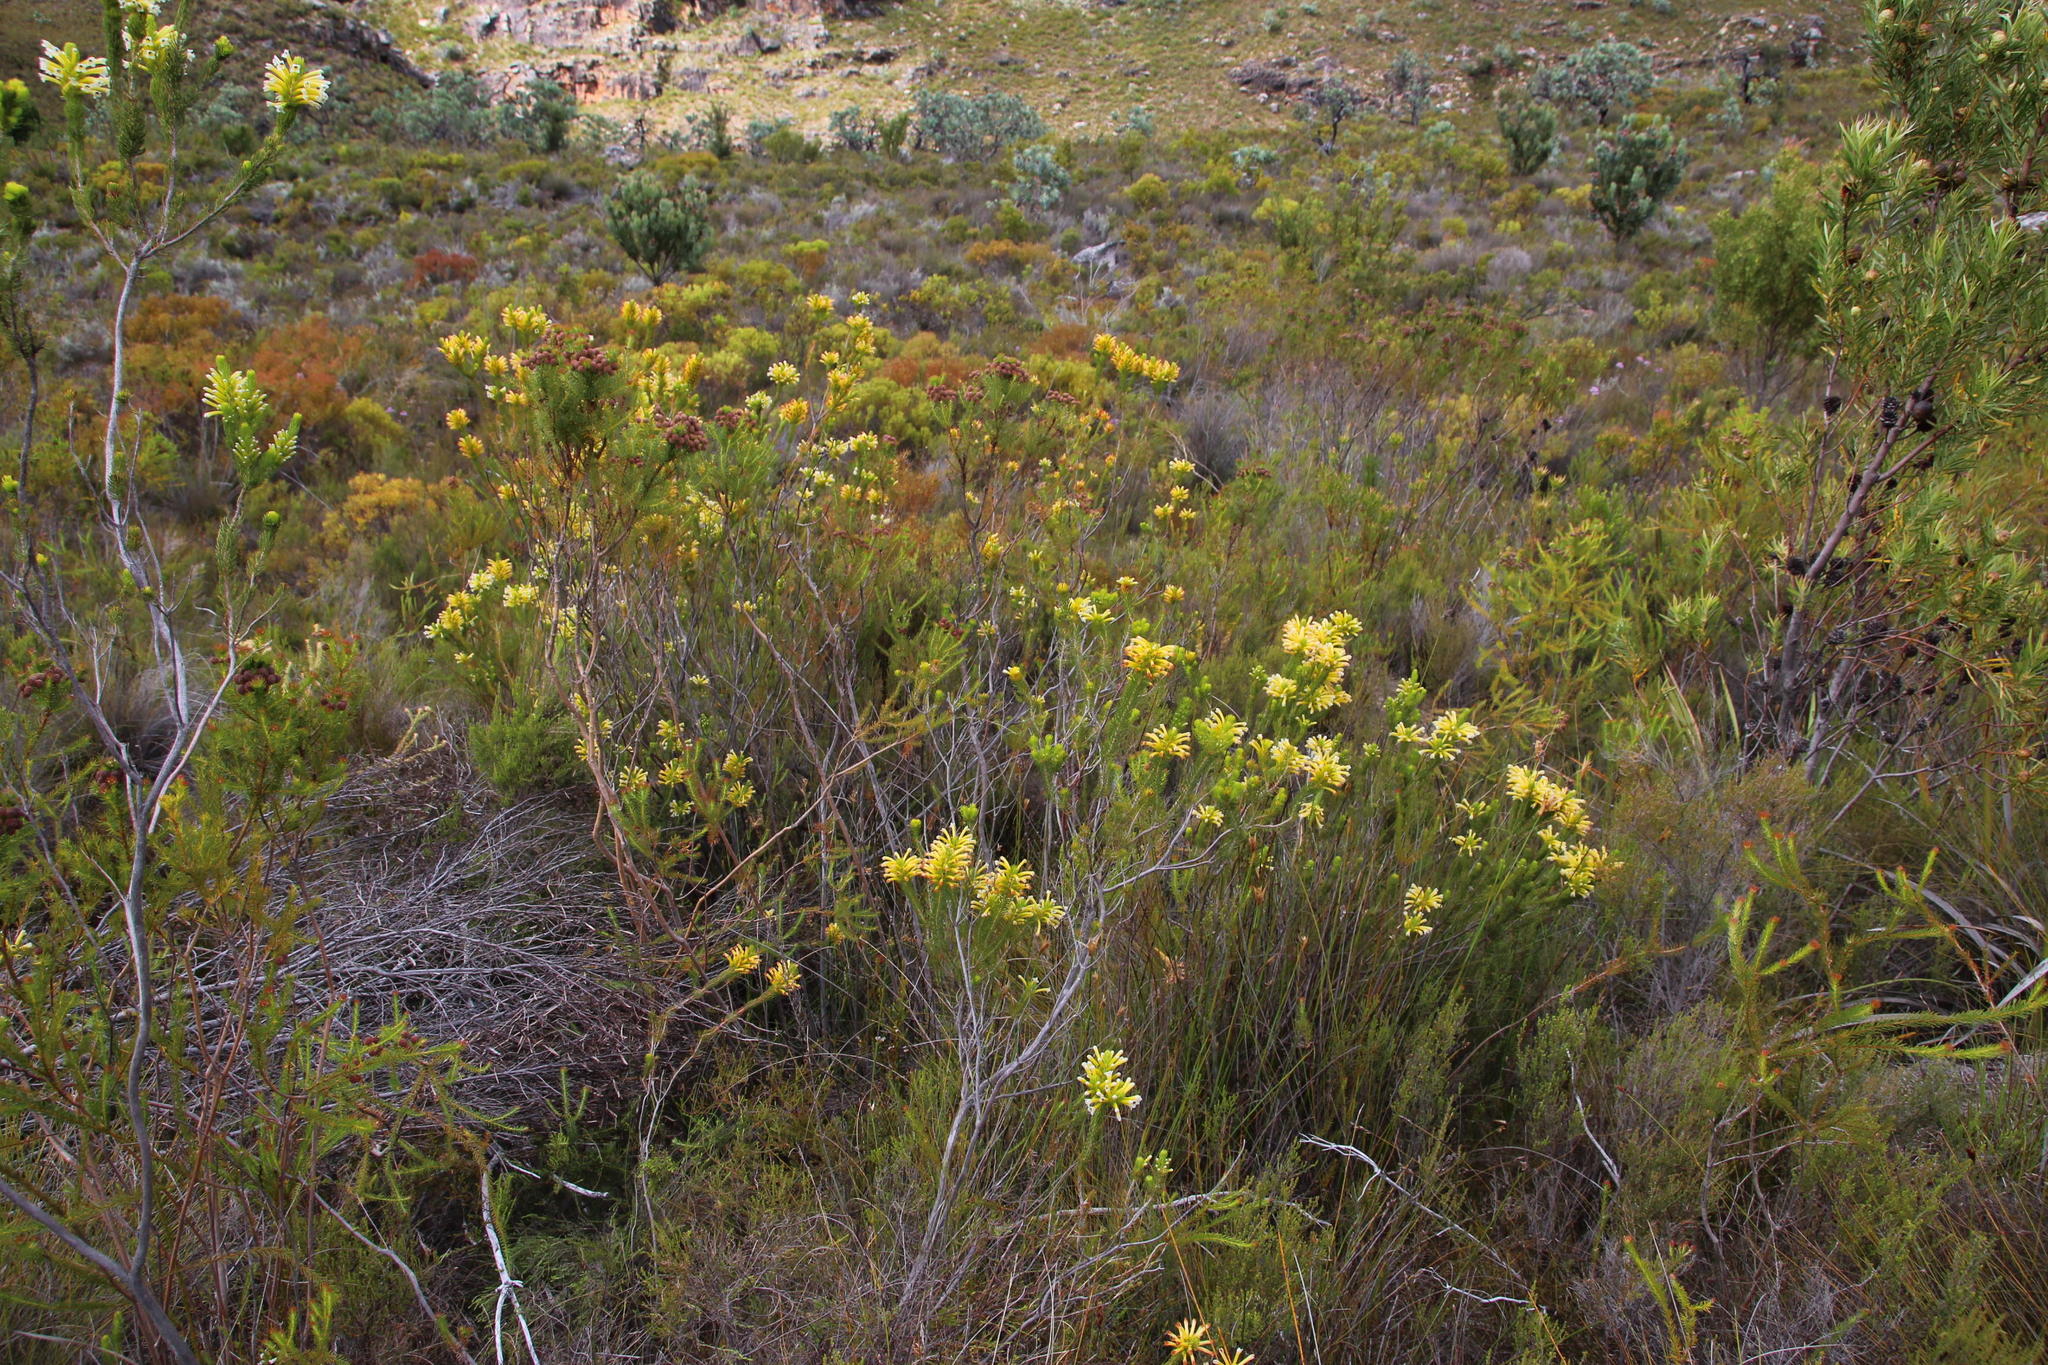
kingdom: Plantae
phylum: Tracheophyta
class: Magnoliopsida
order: Ericales
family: Ericaceae
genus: Erica
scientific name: Erica pinea
